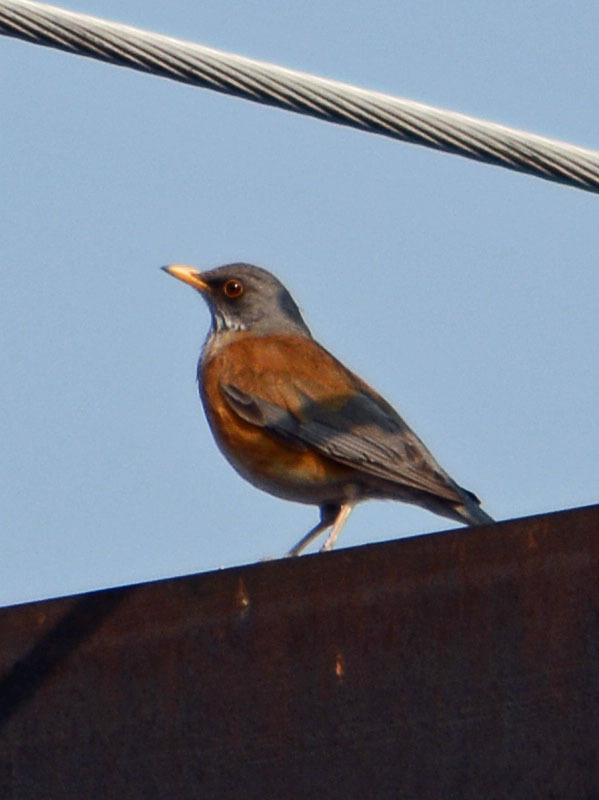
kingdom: Animalia
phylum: Chordata
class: Aves
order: Passeriformes
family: Turdidae
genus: Turdus
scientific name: Turdus rufopalliatus
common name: Rufous-backed robin
